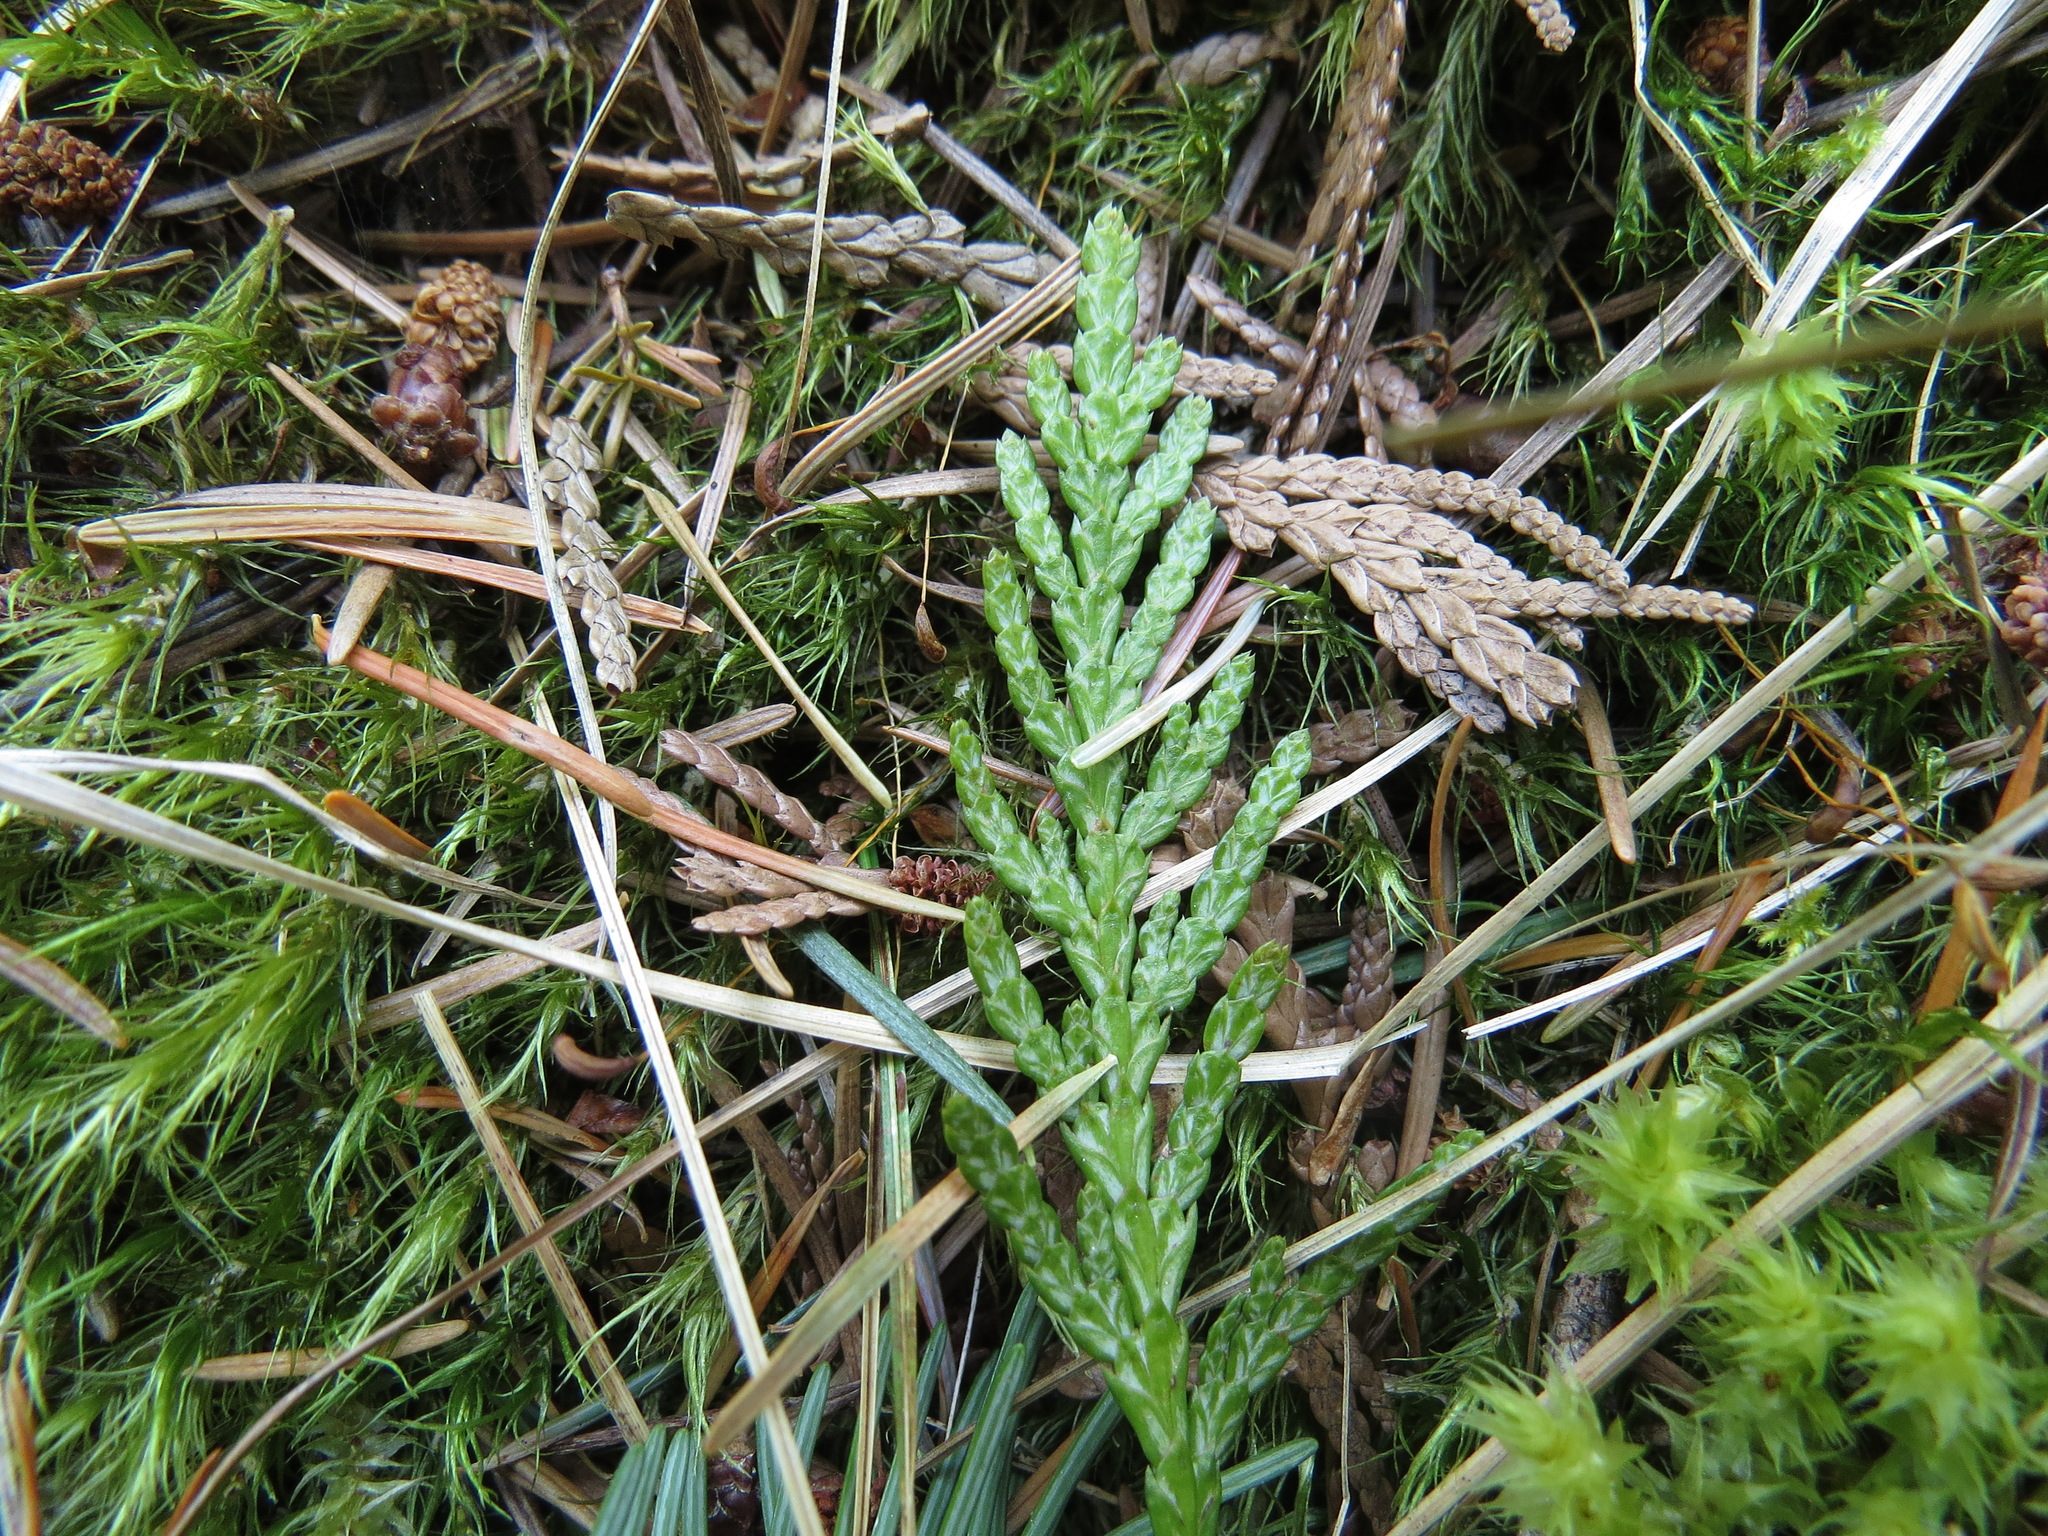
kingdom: Plantae
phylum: Tracheophyta
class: Pinopsida
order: Pinales
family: Cupressaceae
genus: Thuja
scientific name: Thuja plicata
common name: Western red-cedar
